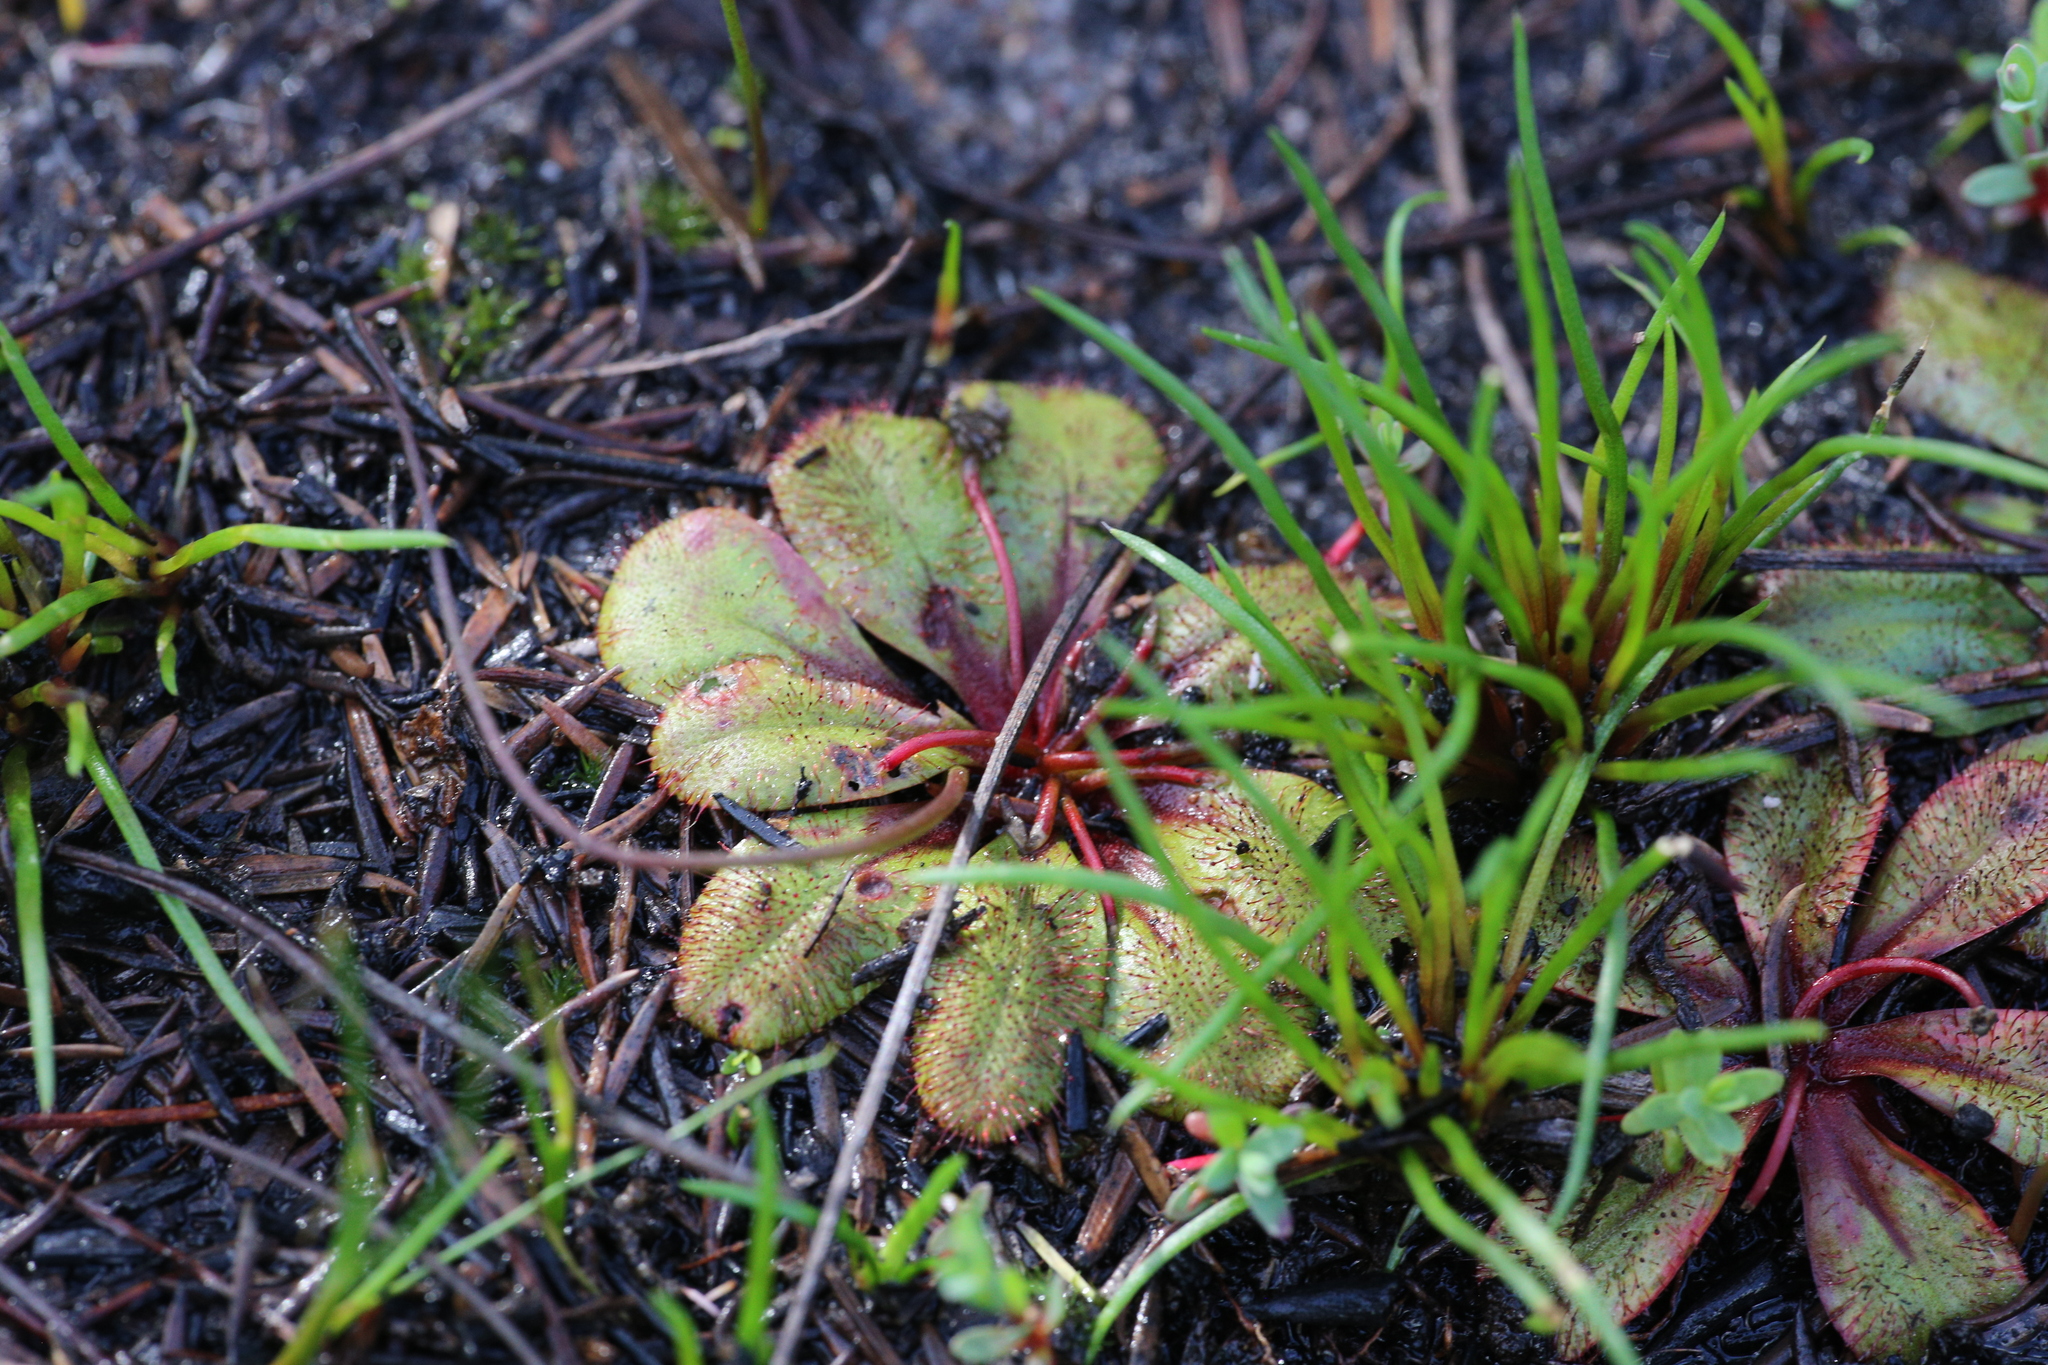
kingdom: Plantae
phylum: Tracheophyta
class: Magnoliopsida
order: Caryophyllales
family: Droseraceae
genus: Drosera
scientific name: Drosera rosulata
